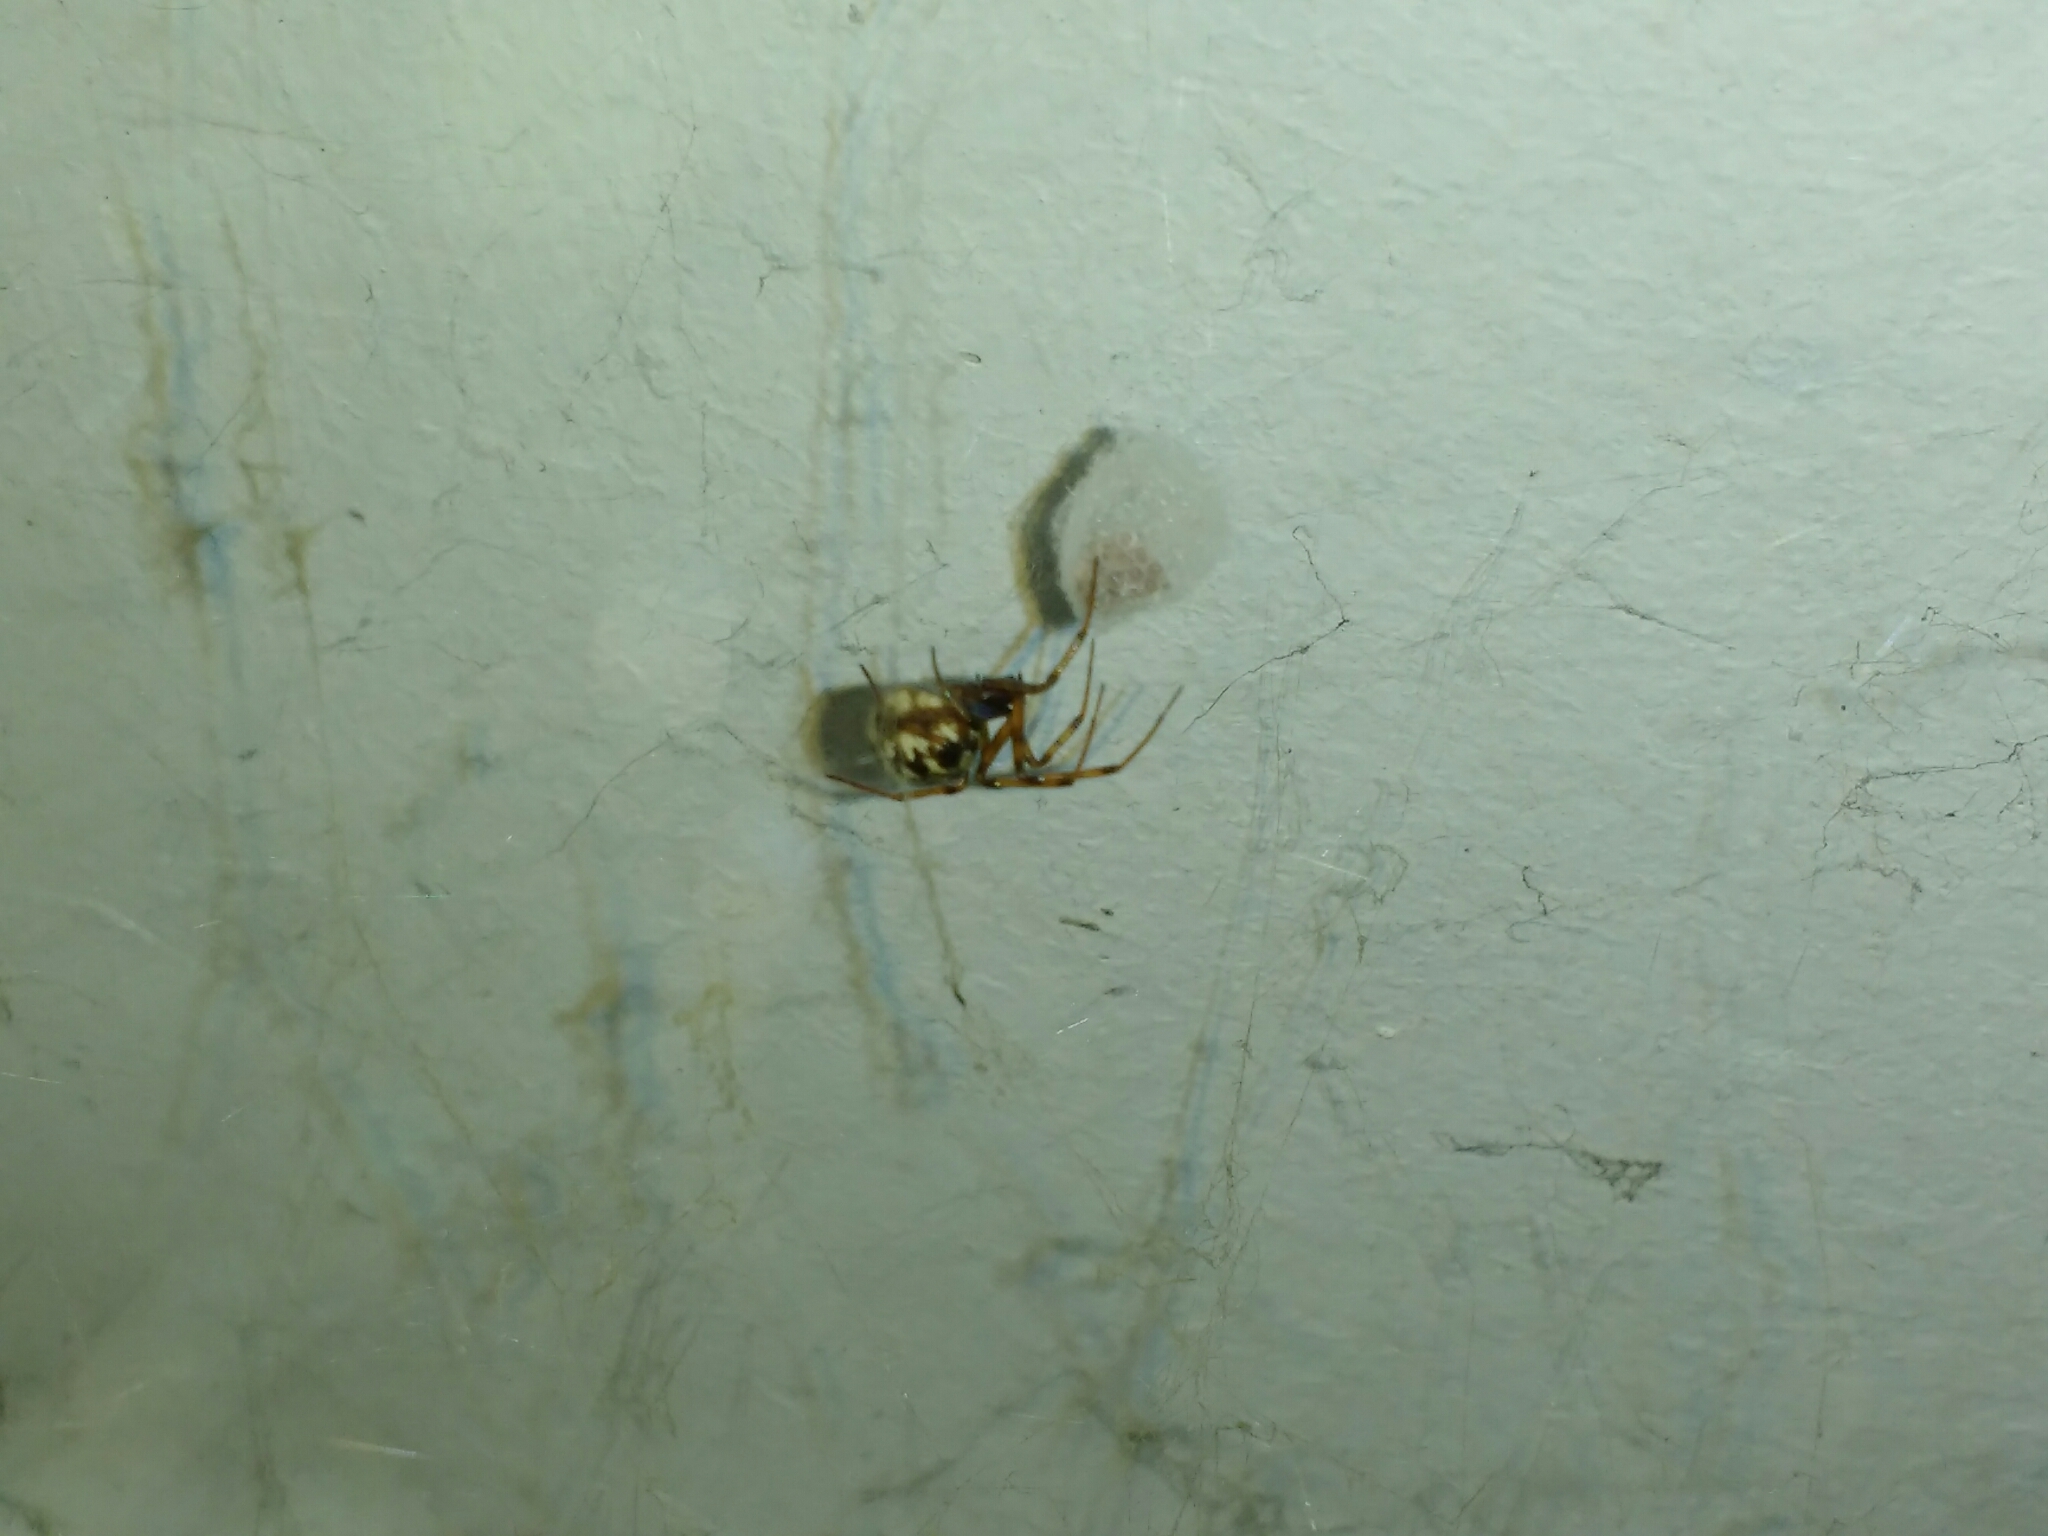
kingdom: Animalia
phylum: Arthropoda
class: Arachnida
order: Araneae
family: Theridiidae
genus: Steatoda
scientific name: Steatoda triangulosa
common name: Triangulate bud spider
